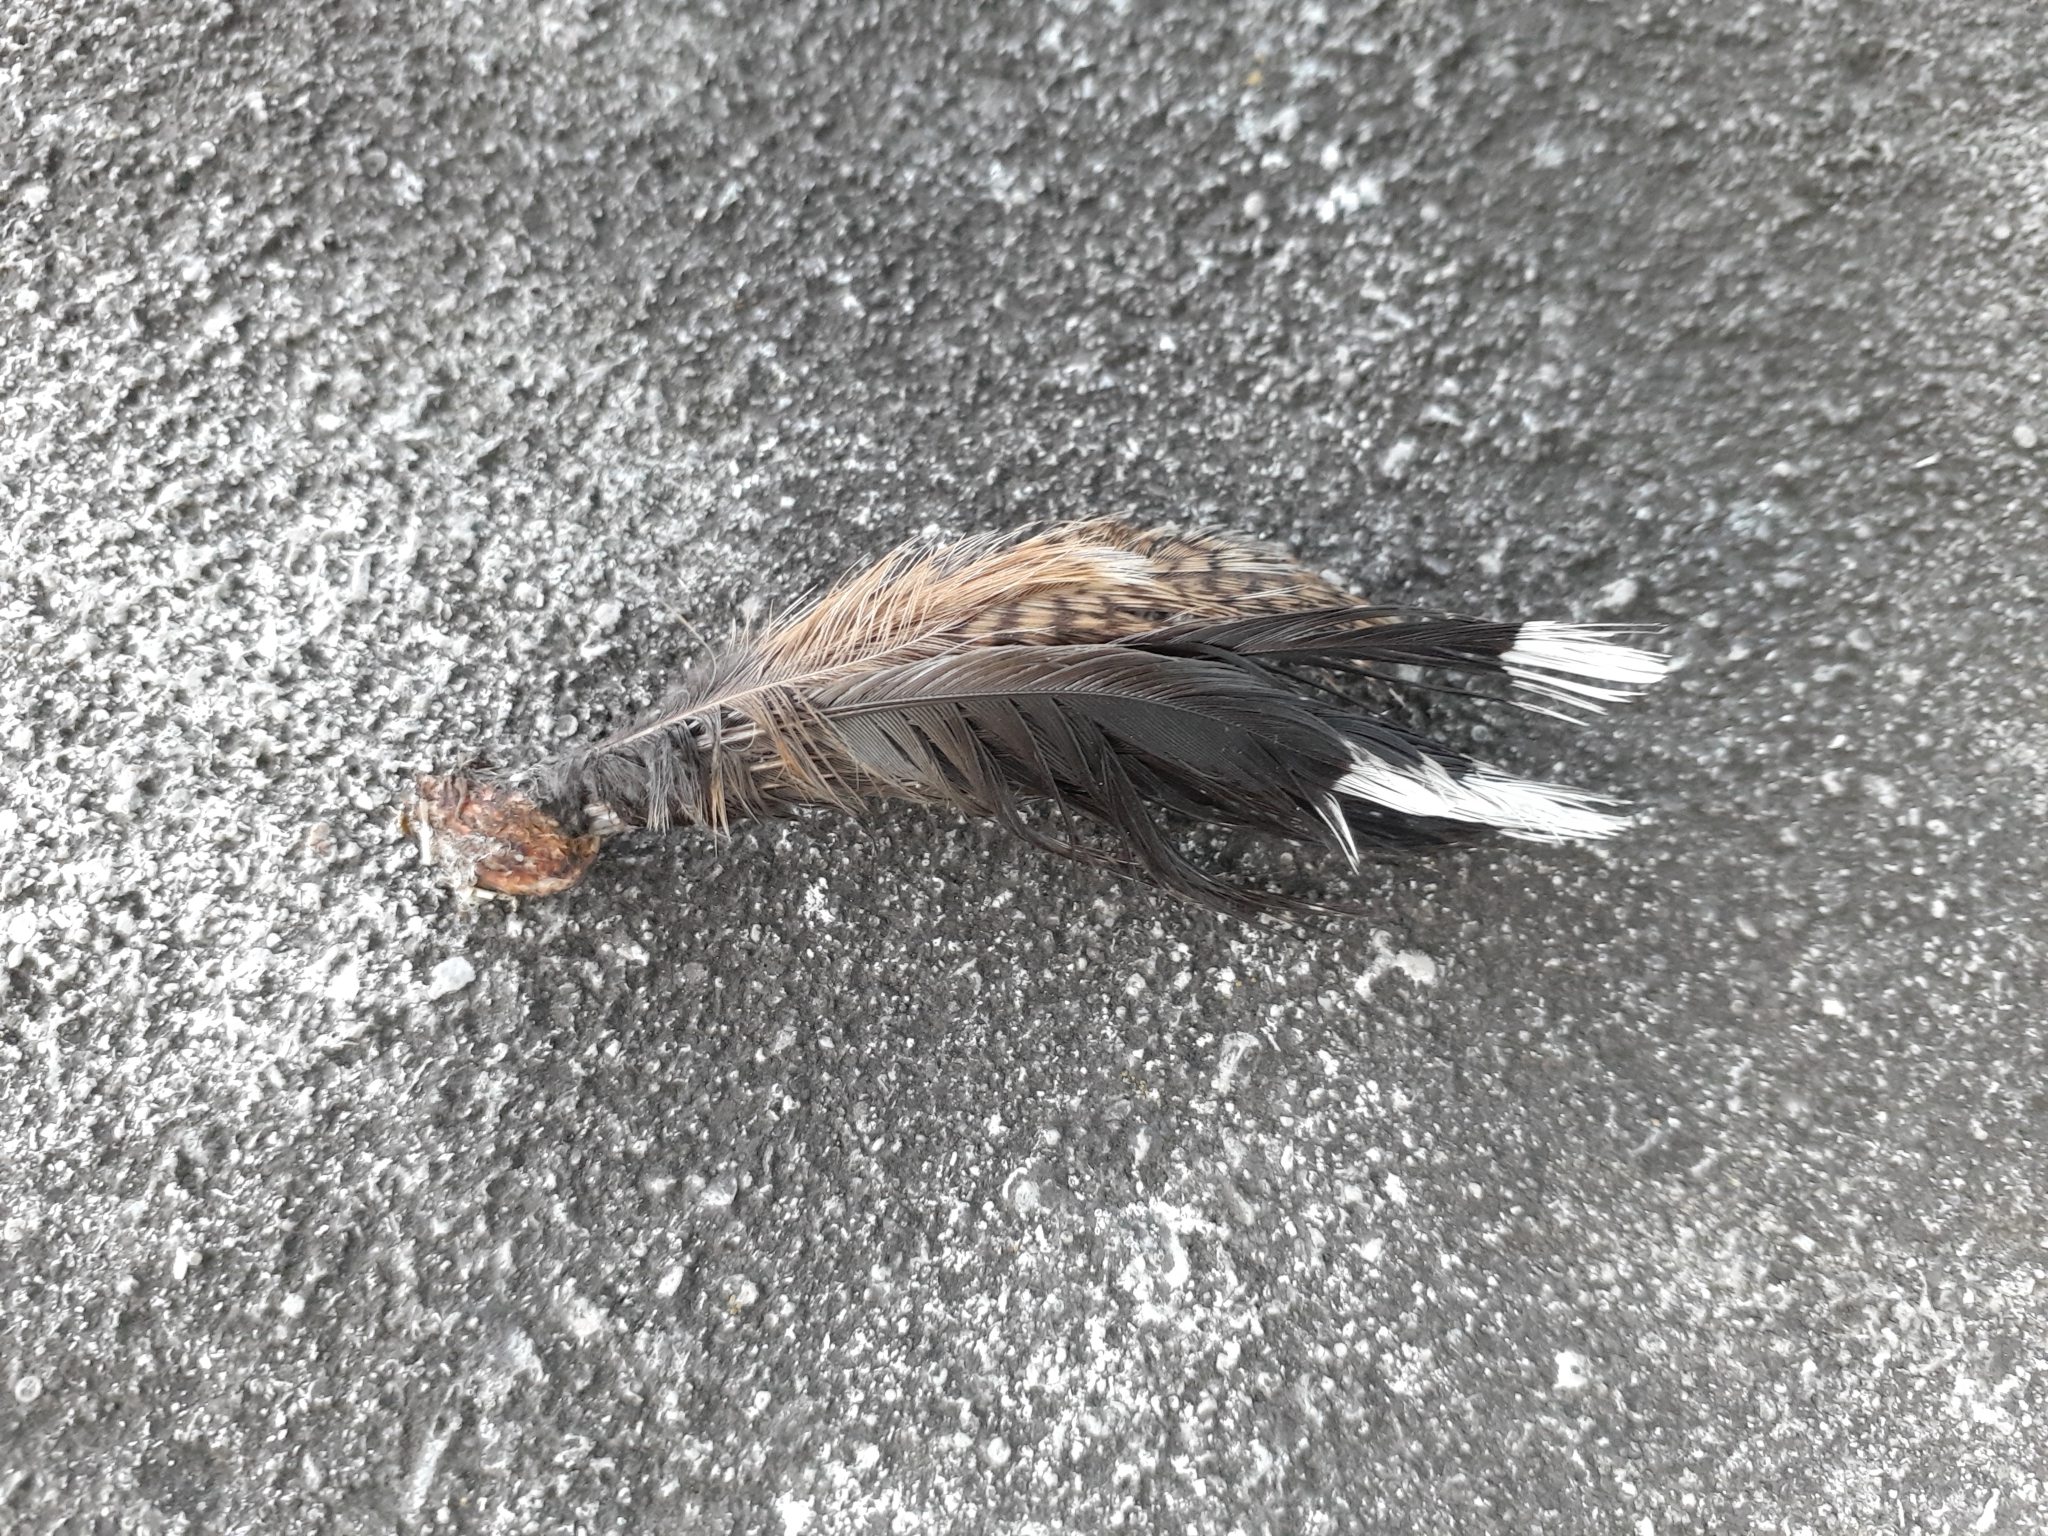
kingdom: Animalia
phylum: Chordata
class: Aves
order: Charadriiformes
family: Scolopacidae
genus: Scolopax
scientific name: Scolopax minor
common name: American woodcock
